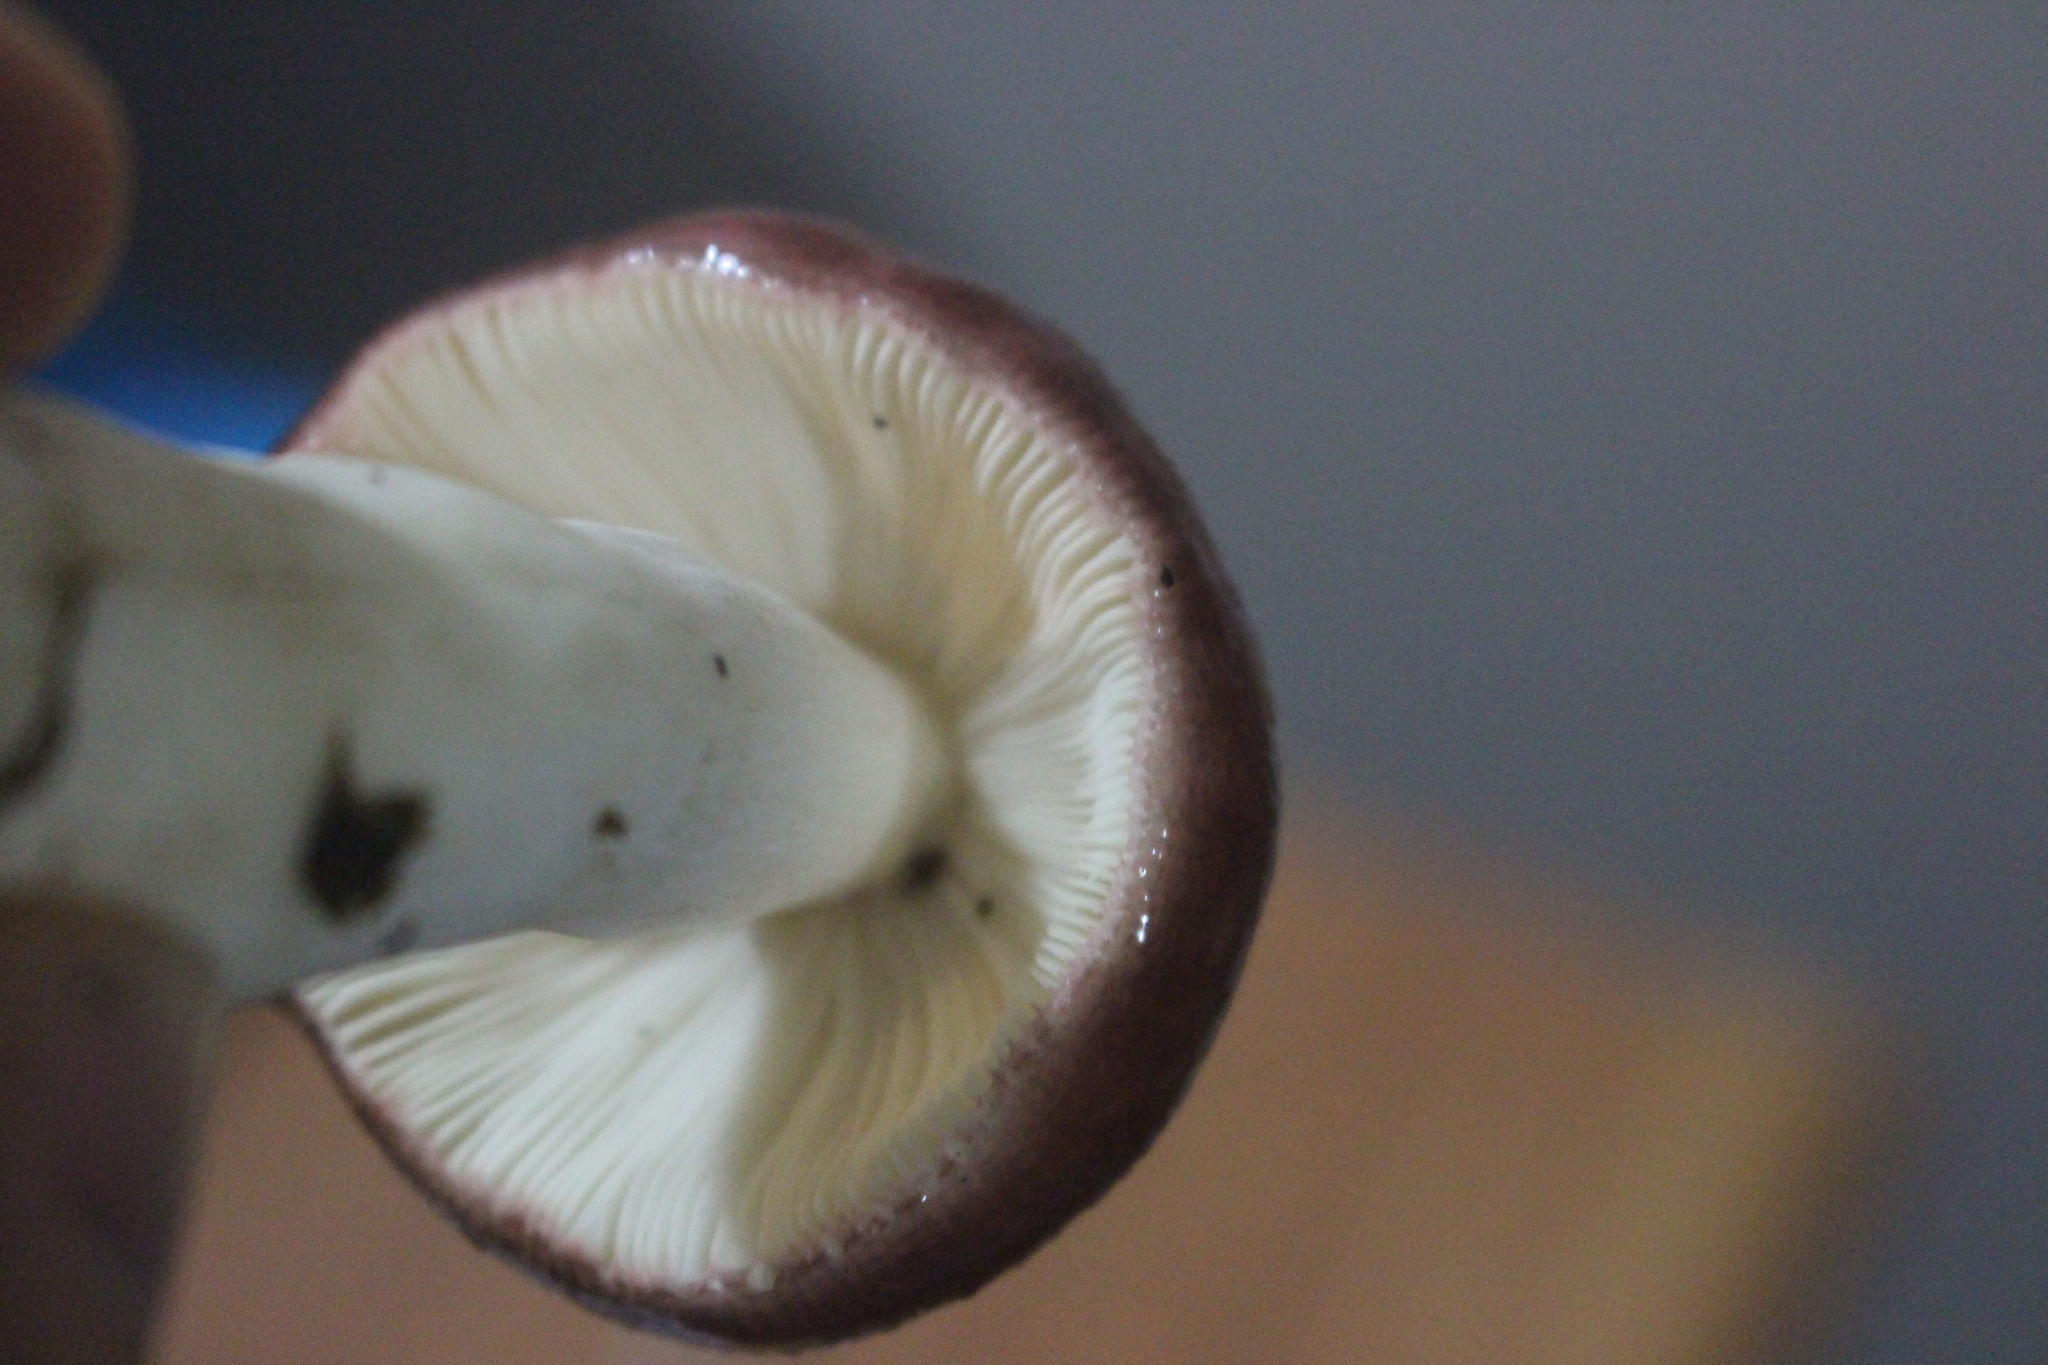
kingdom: Fungi
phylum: Basidiomycota
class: Agaricomycetes
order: Russulales
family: Russulaceae
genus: Russula
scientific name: Russula nitida
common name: Purple swamp brittlegill
